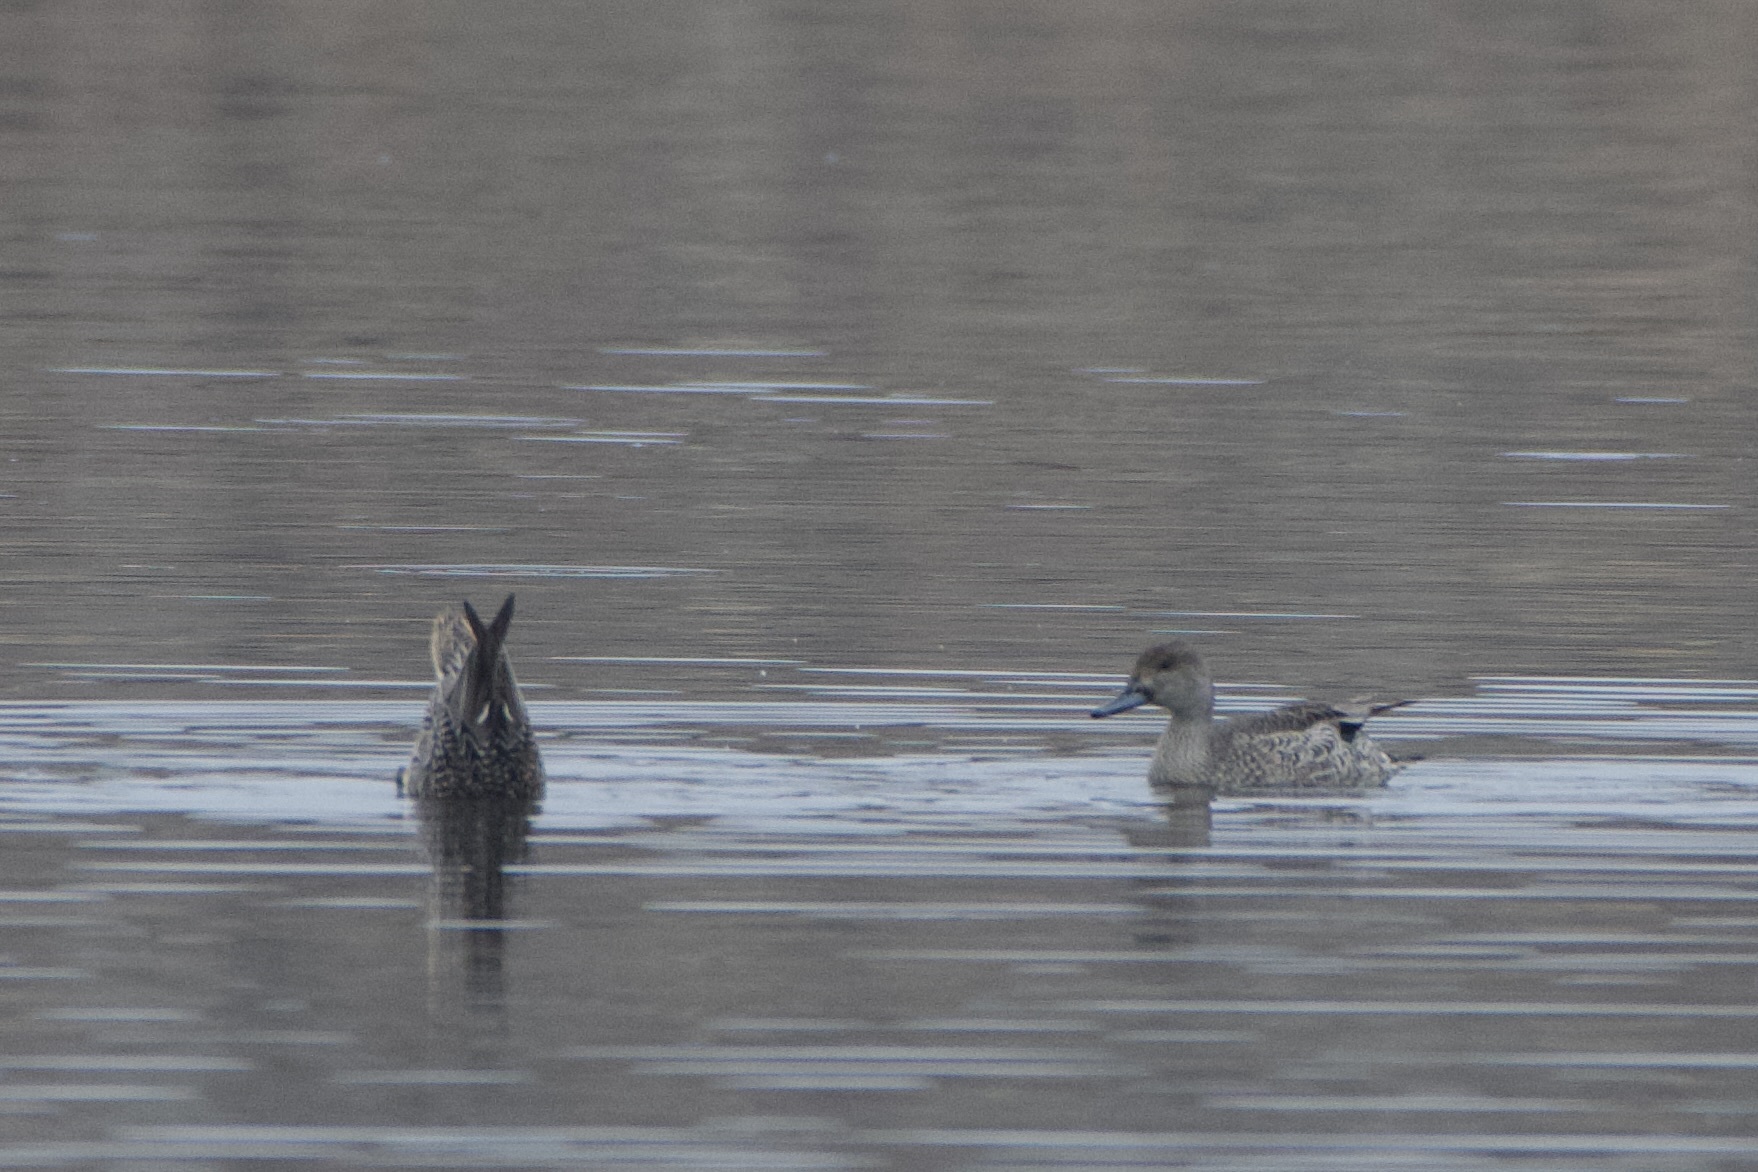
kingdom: Animalia
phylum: Chordata
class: Aves
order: Anseriformes
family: Anatidae
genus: Anas
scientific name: Anas acuta
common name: Northern pintail
